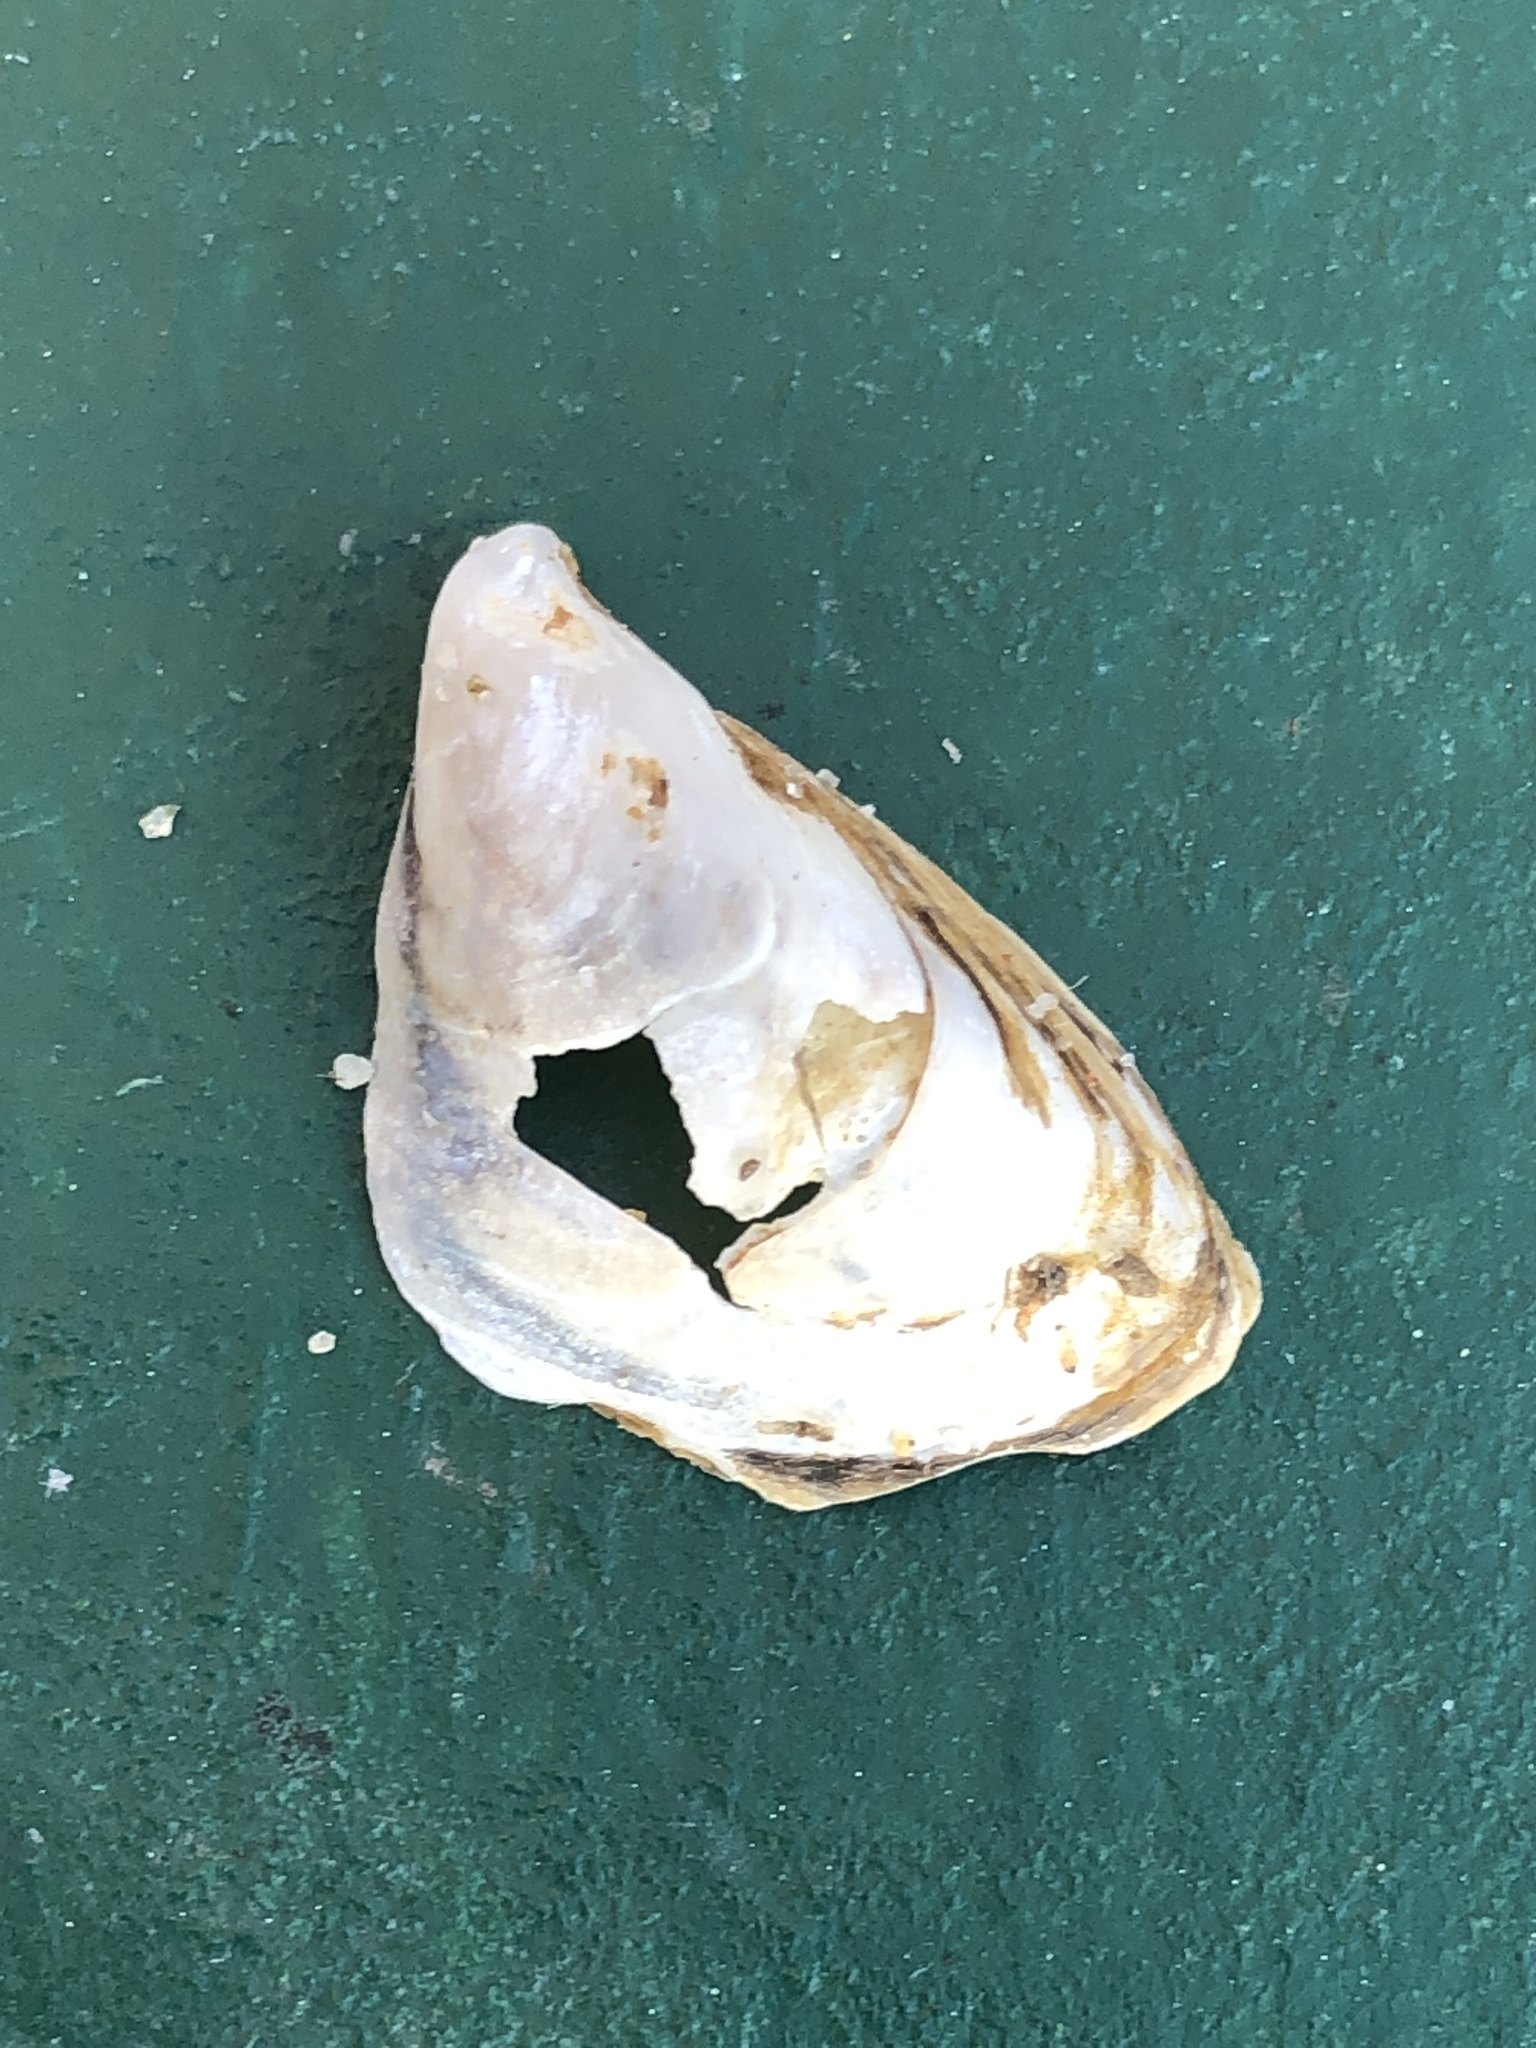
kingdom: Animalia
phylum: Mollusca
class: Bivalvia
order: Myida
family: Dreissenidae
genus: Dreissena
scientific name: Dreissena bugensis
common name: Quagga mussel
